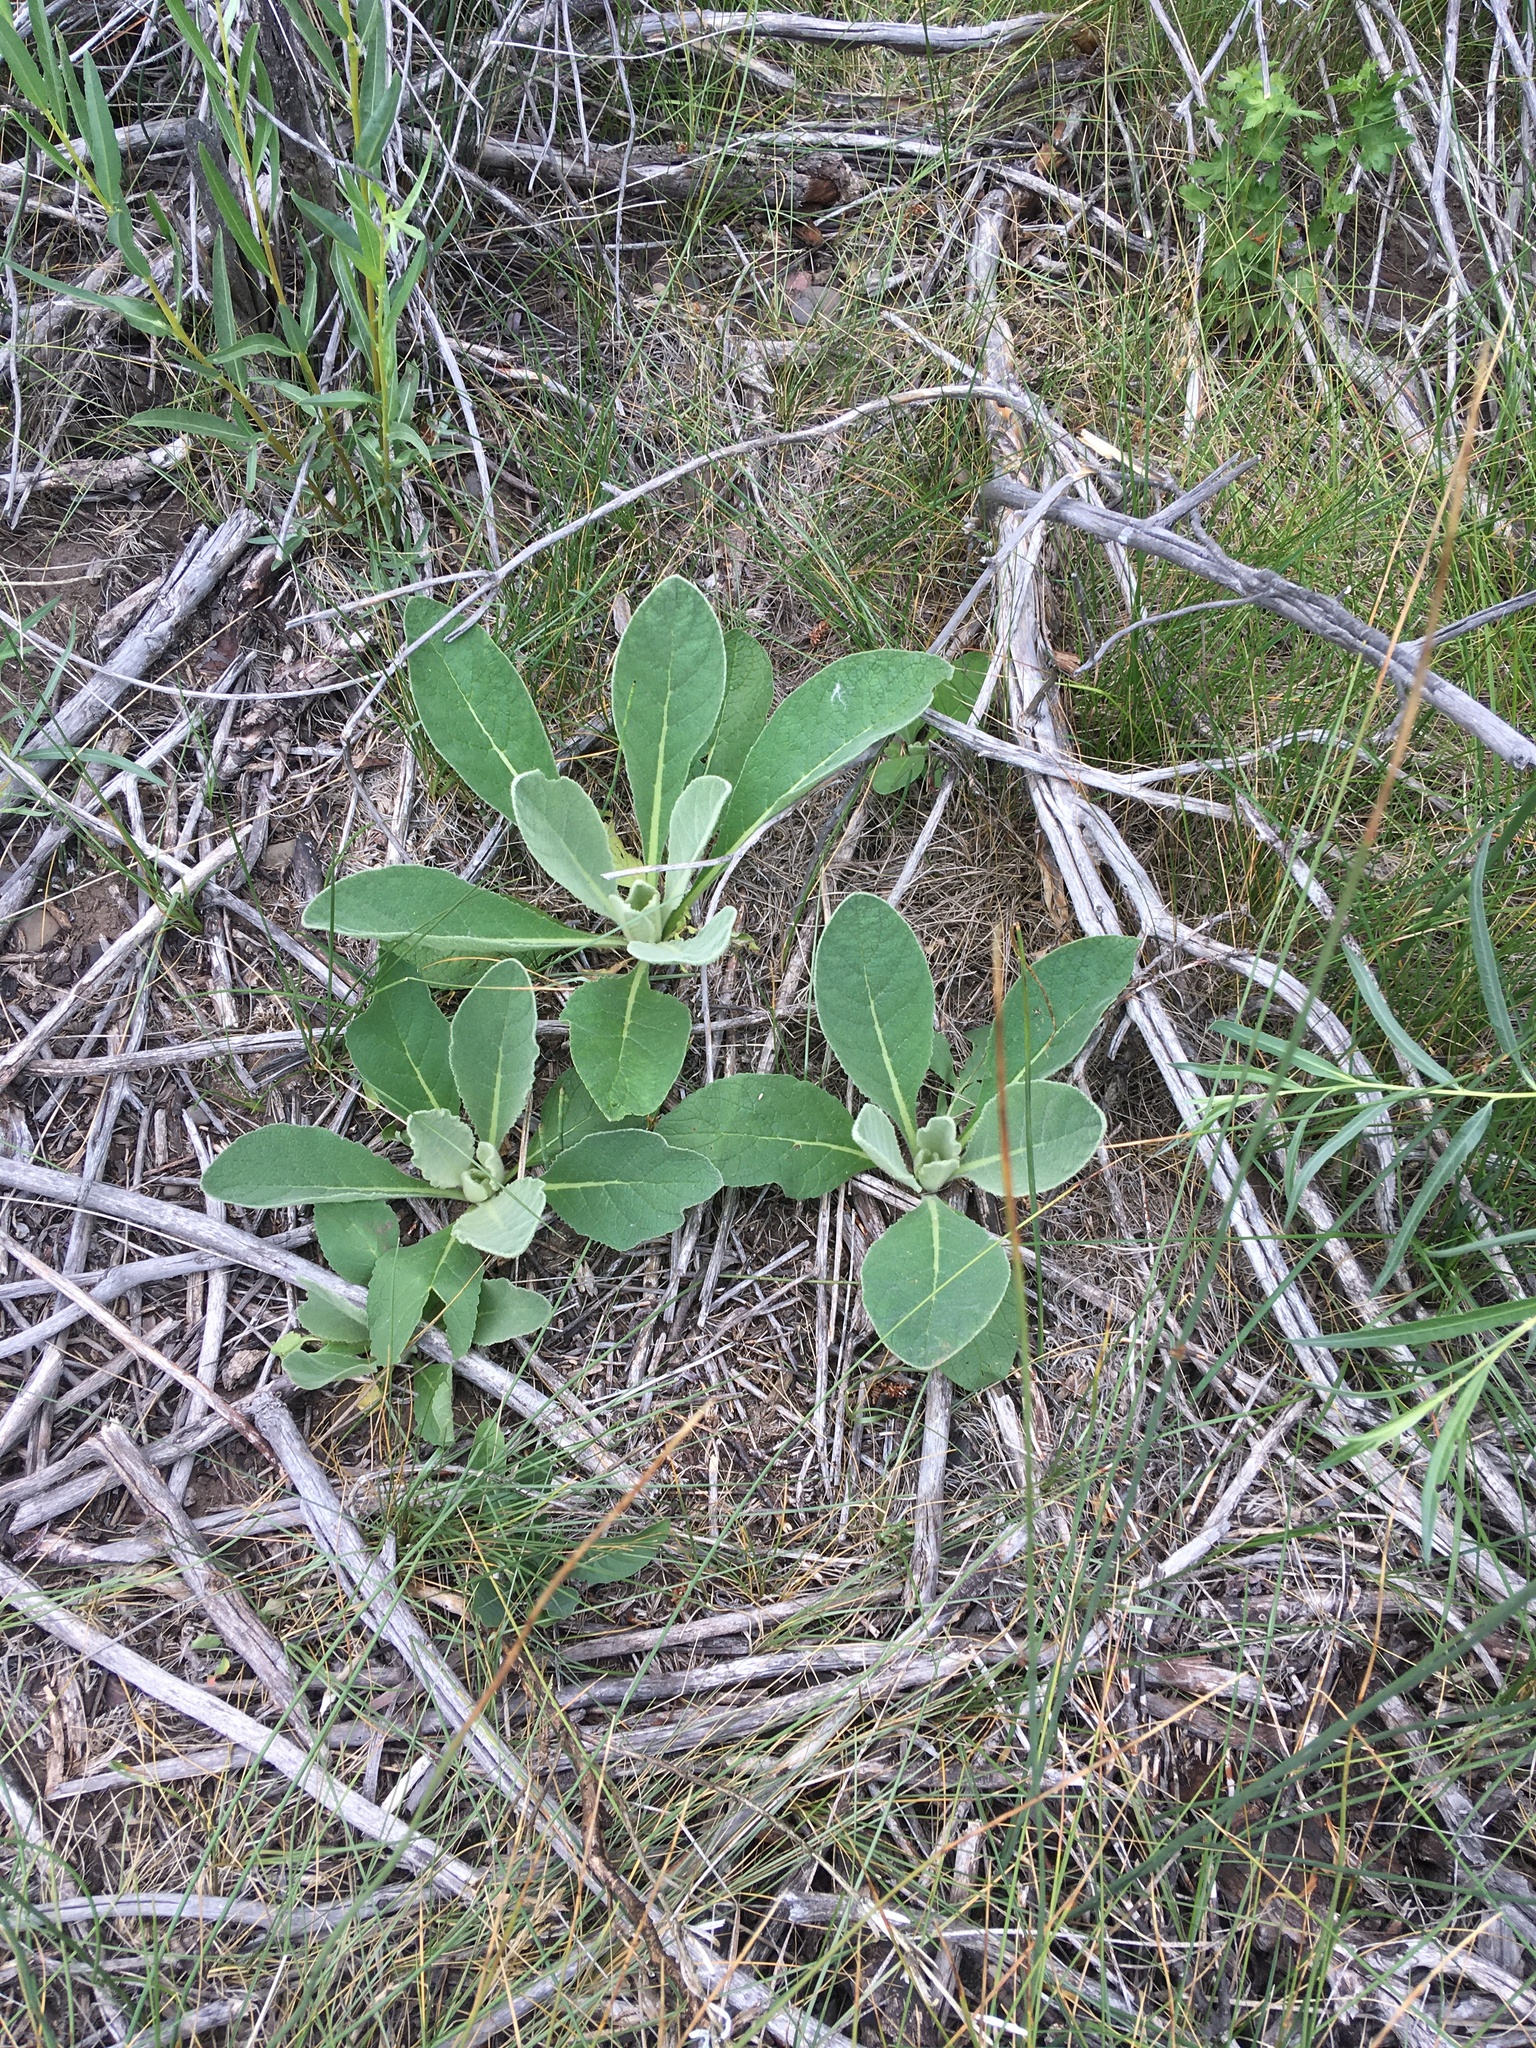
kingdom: Plantae
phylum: Tracheophyta
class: Magnoliopsida
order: Lamiales
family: Scrophulariaceae
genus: Verbascum
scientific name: Verbascum thapsus
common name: Common mullein
